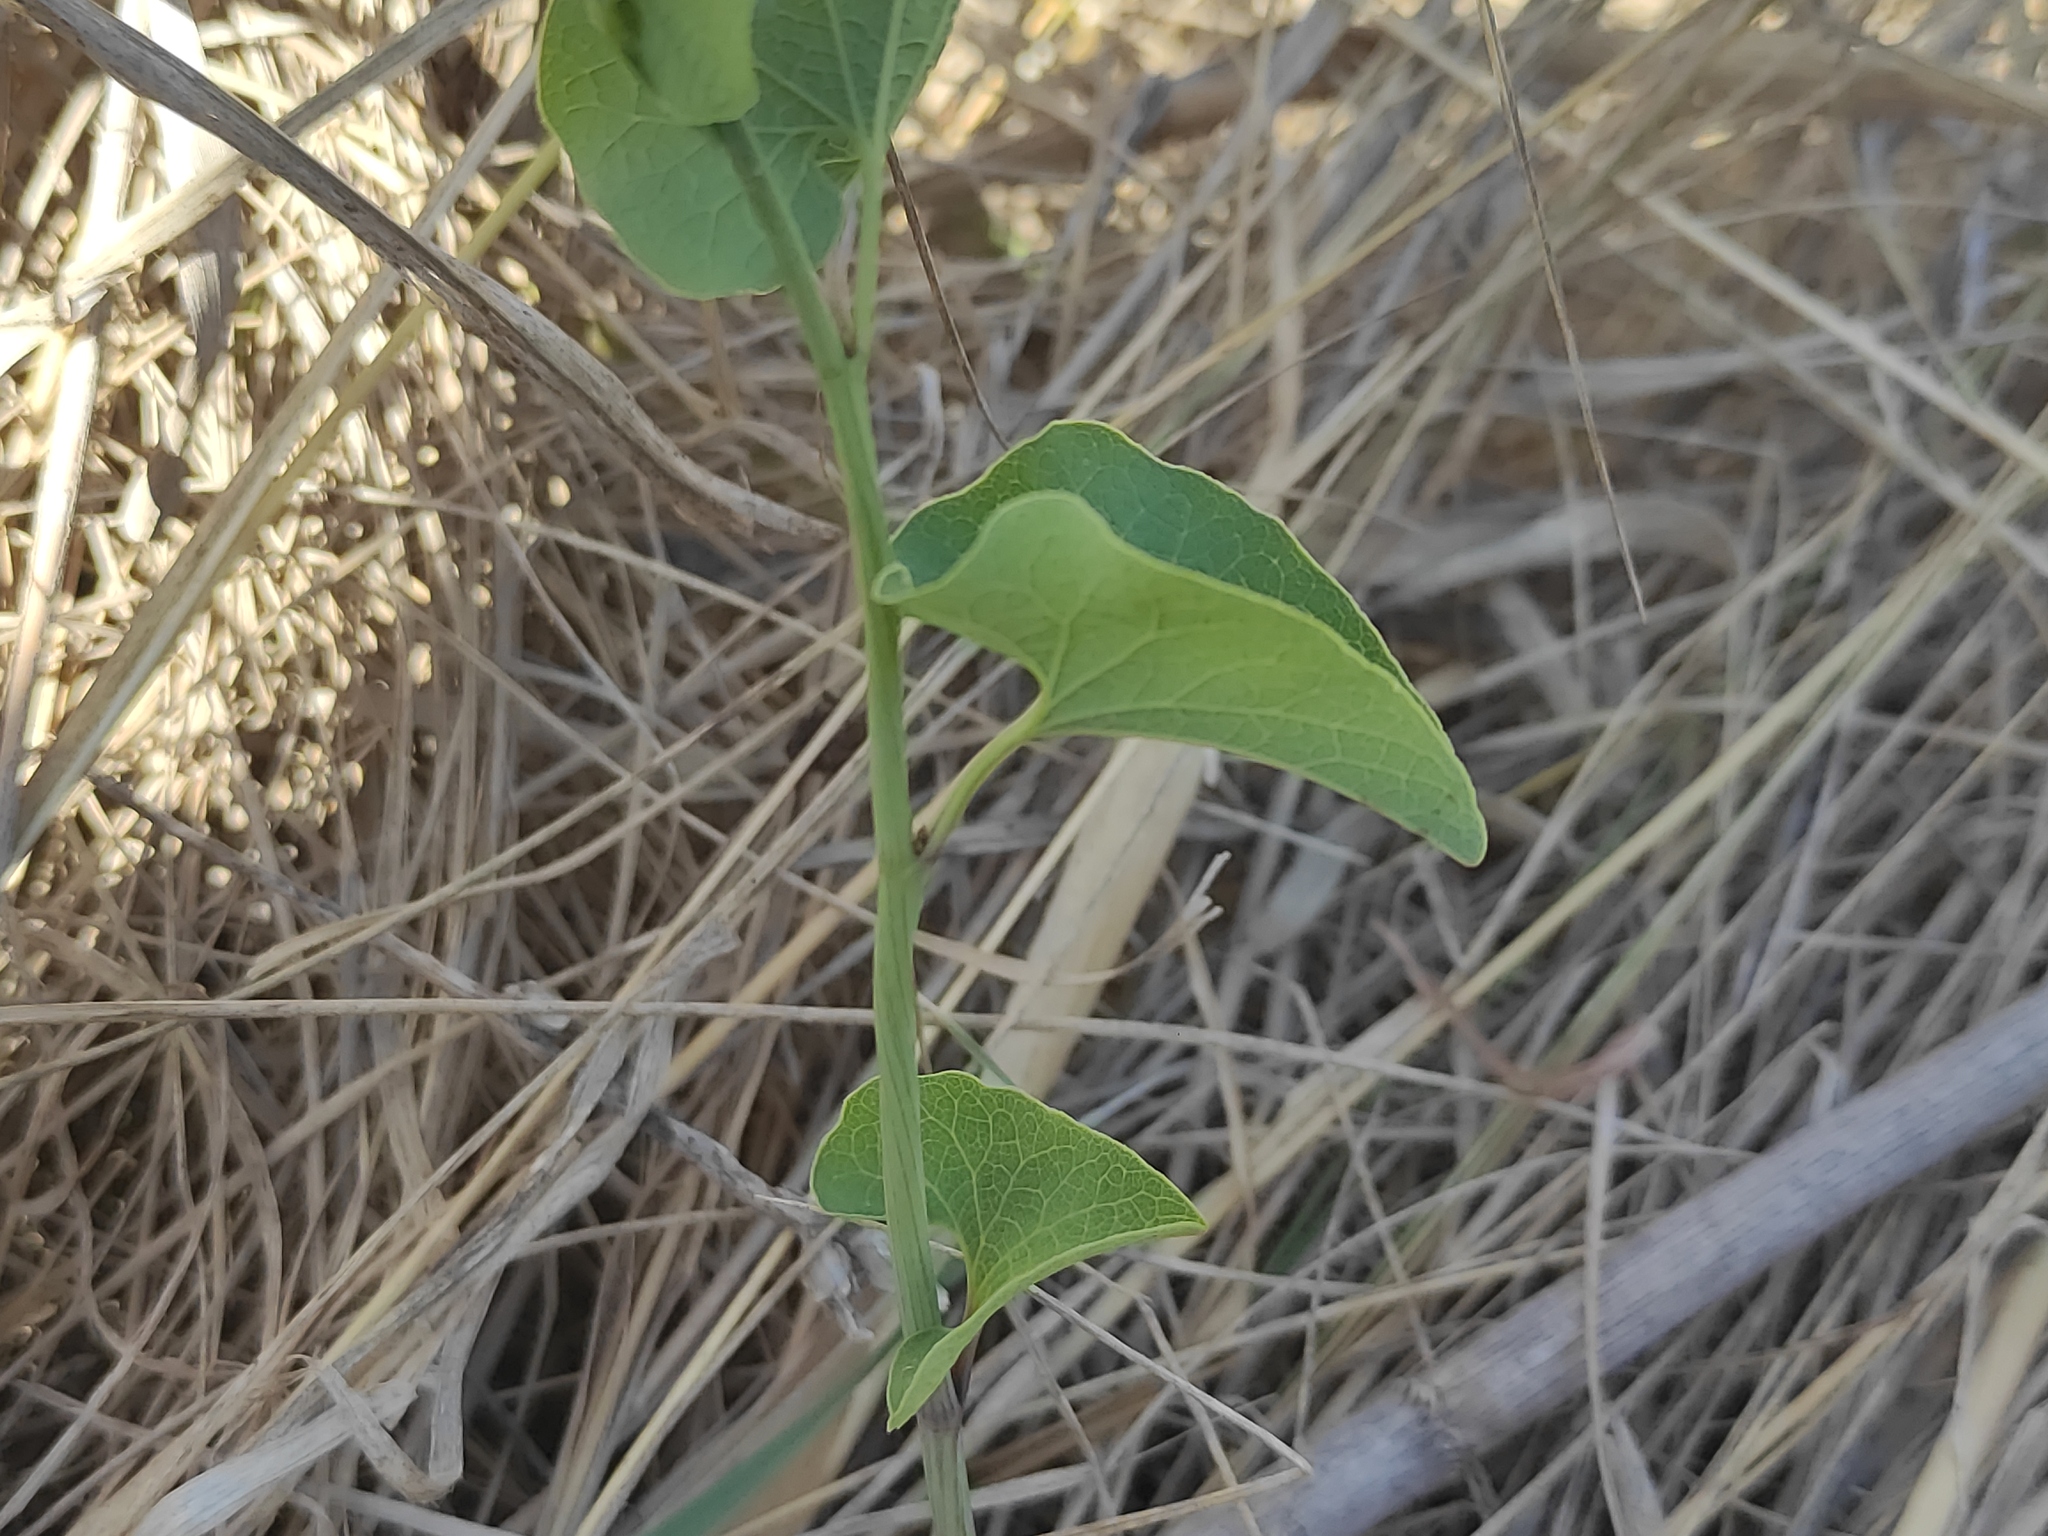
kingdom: Plantae
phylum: Tracheophyta
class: Magnoliopsida
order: Piperales
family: Aristolochiaceae
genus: Aristolochia
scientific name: Aristolochia clematitis
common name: Birthwort
